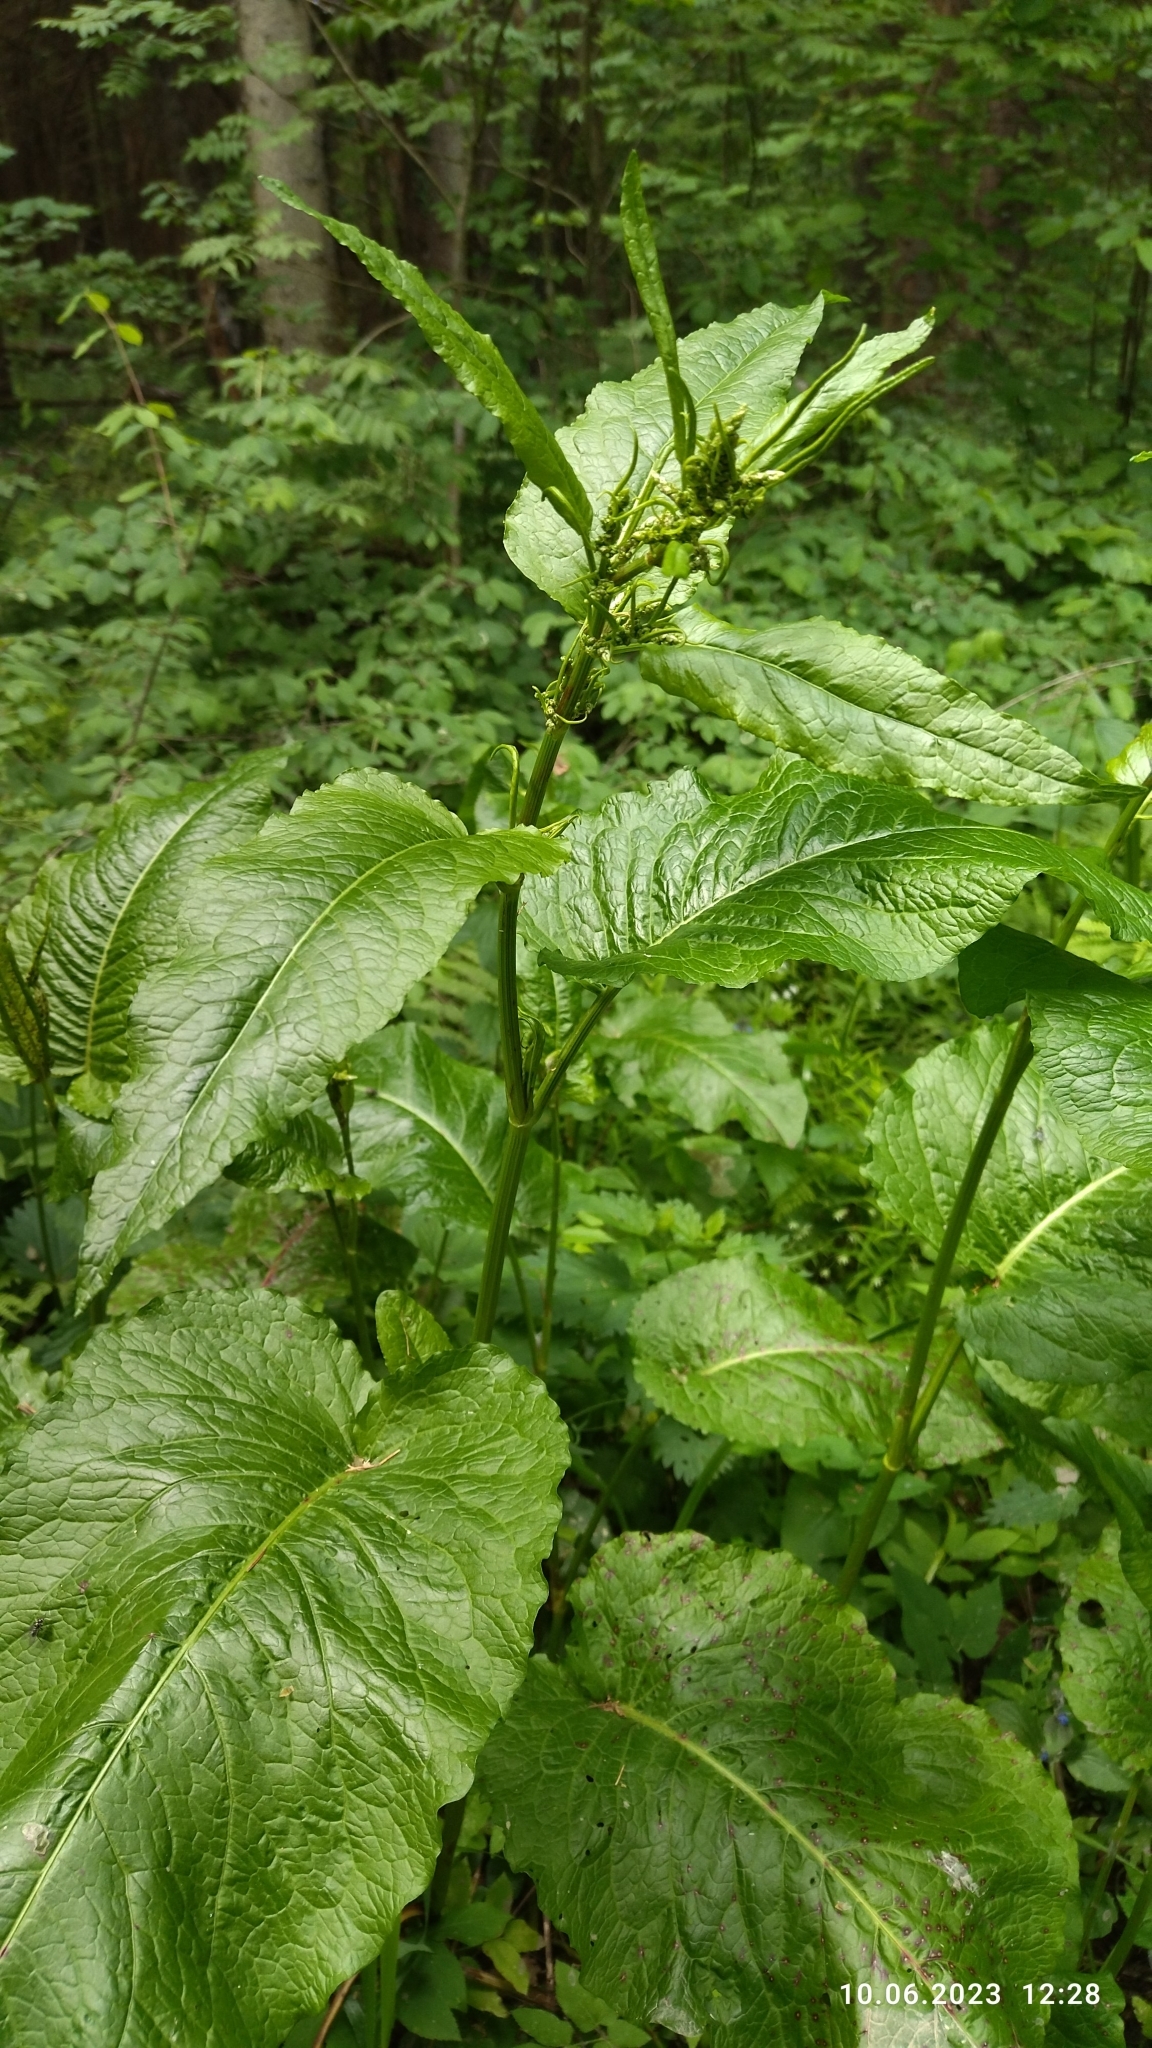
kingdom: Plantae
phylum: Tracheophyta
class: Magnoliopsida
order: Caryophyllales
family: Polygonaceae
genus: Rumex
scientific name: Rumex obtusifolius
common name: Bitter dock
